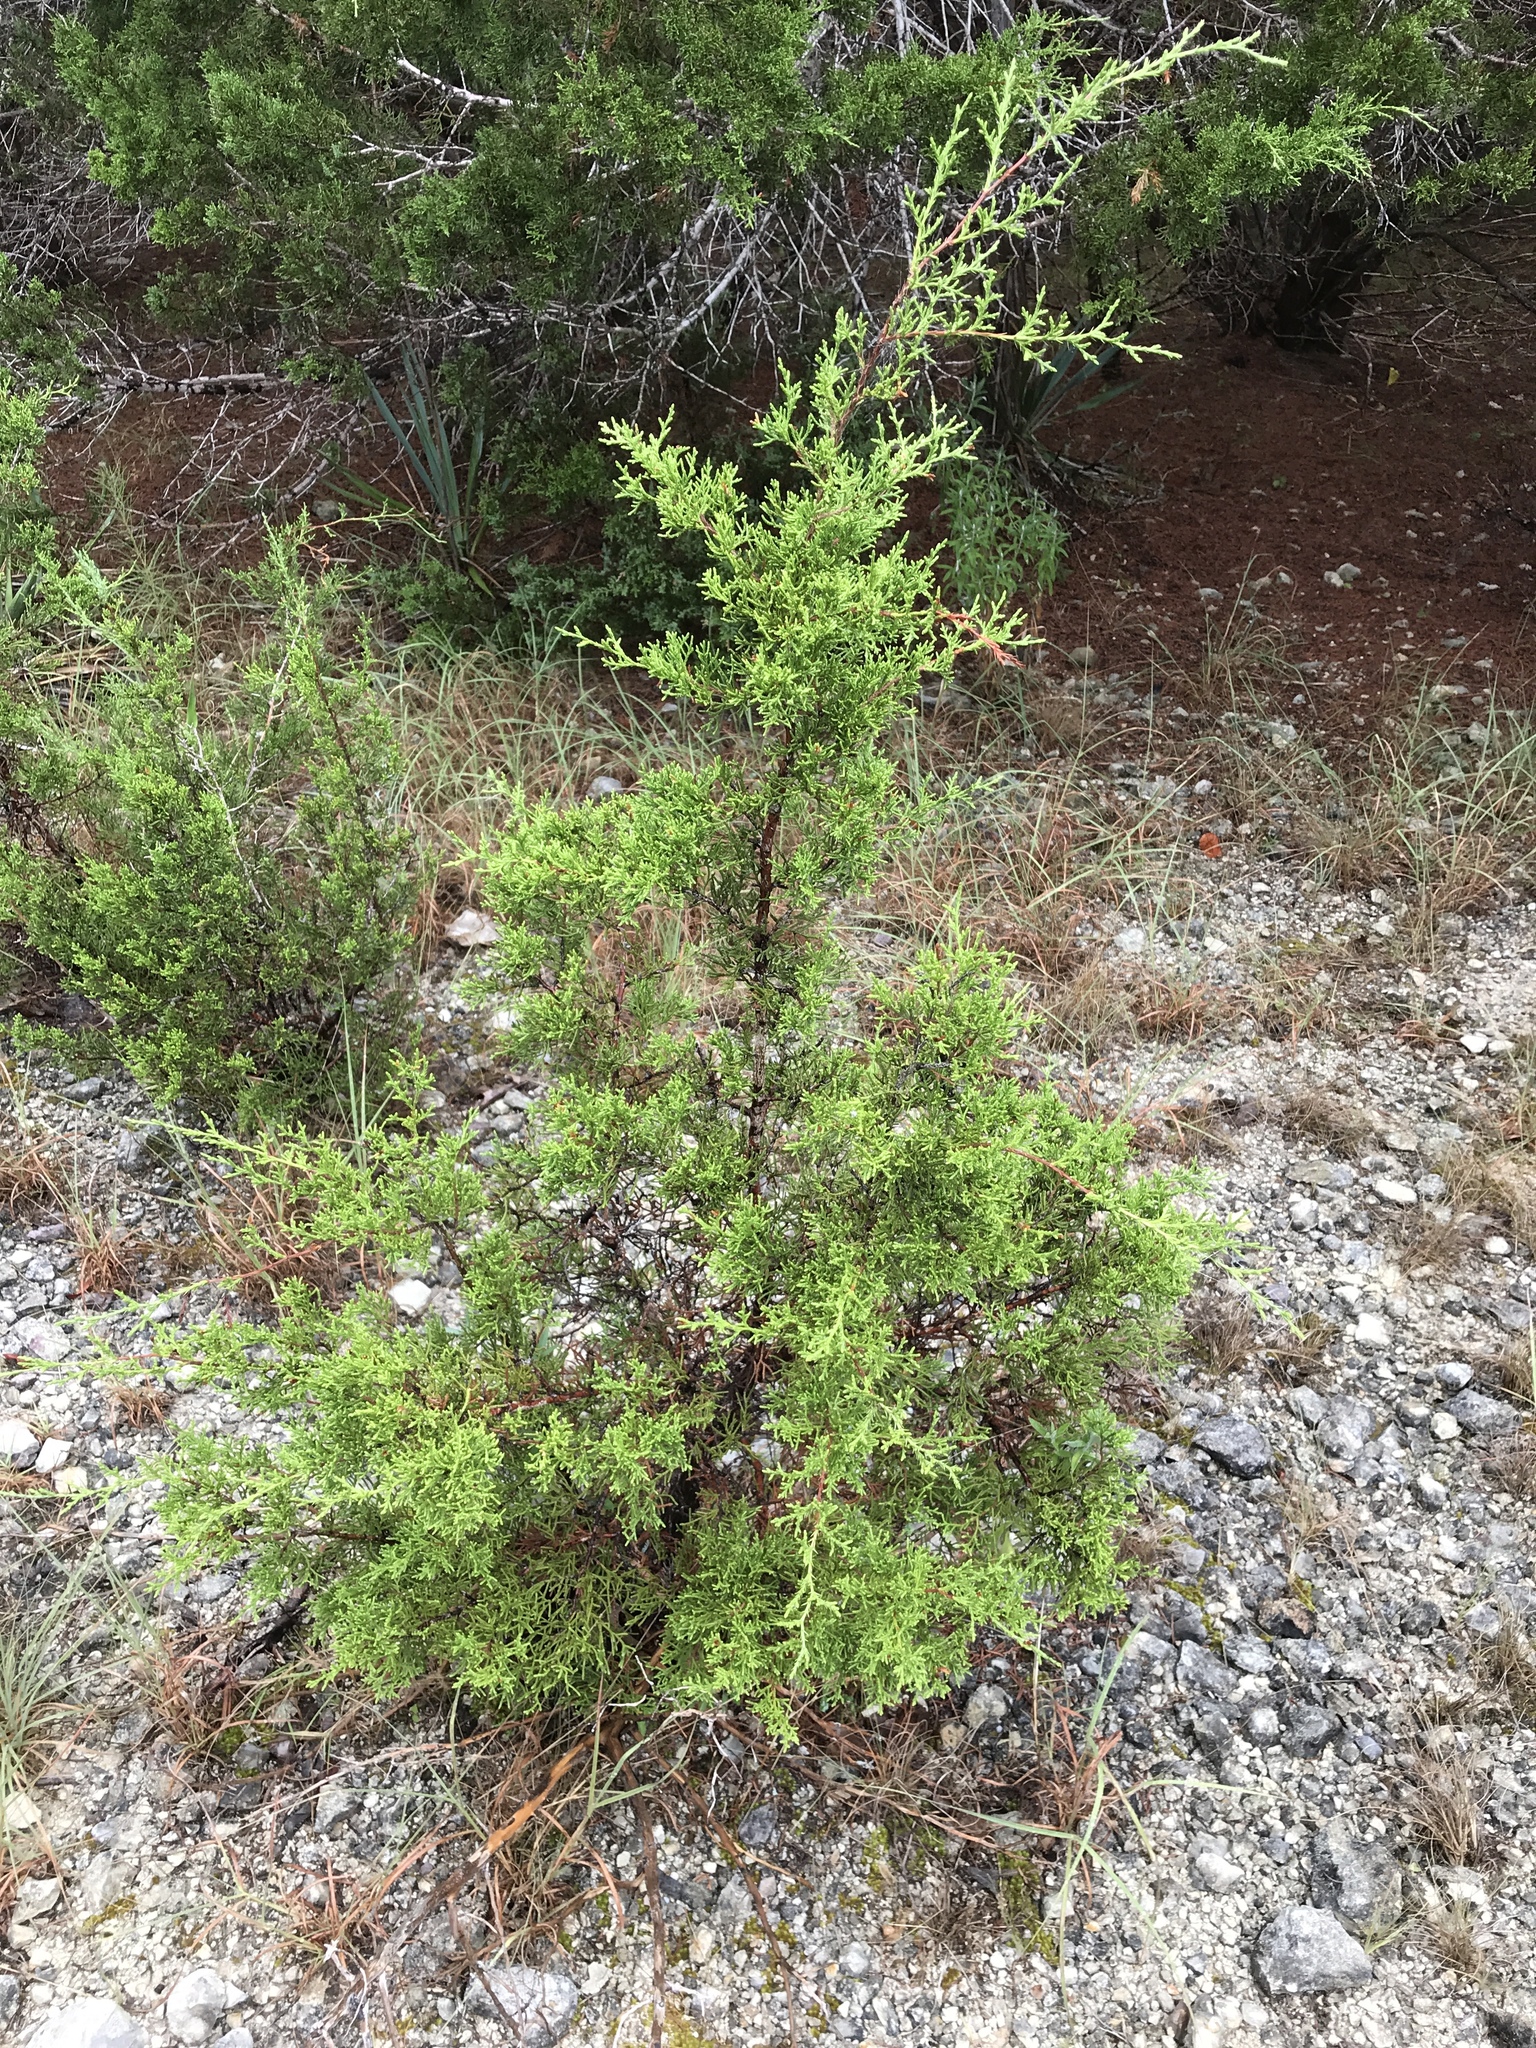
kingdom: Plantae
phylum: Tracheophyta
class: Pinopsida
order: Pinales
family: Cupressaceae
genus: Juniperus
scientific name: Juniperus ashei
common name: Mexican juniper
